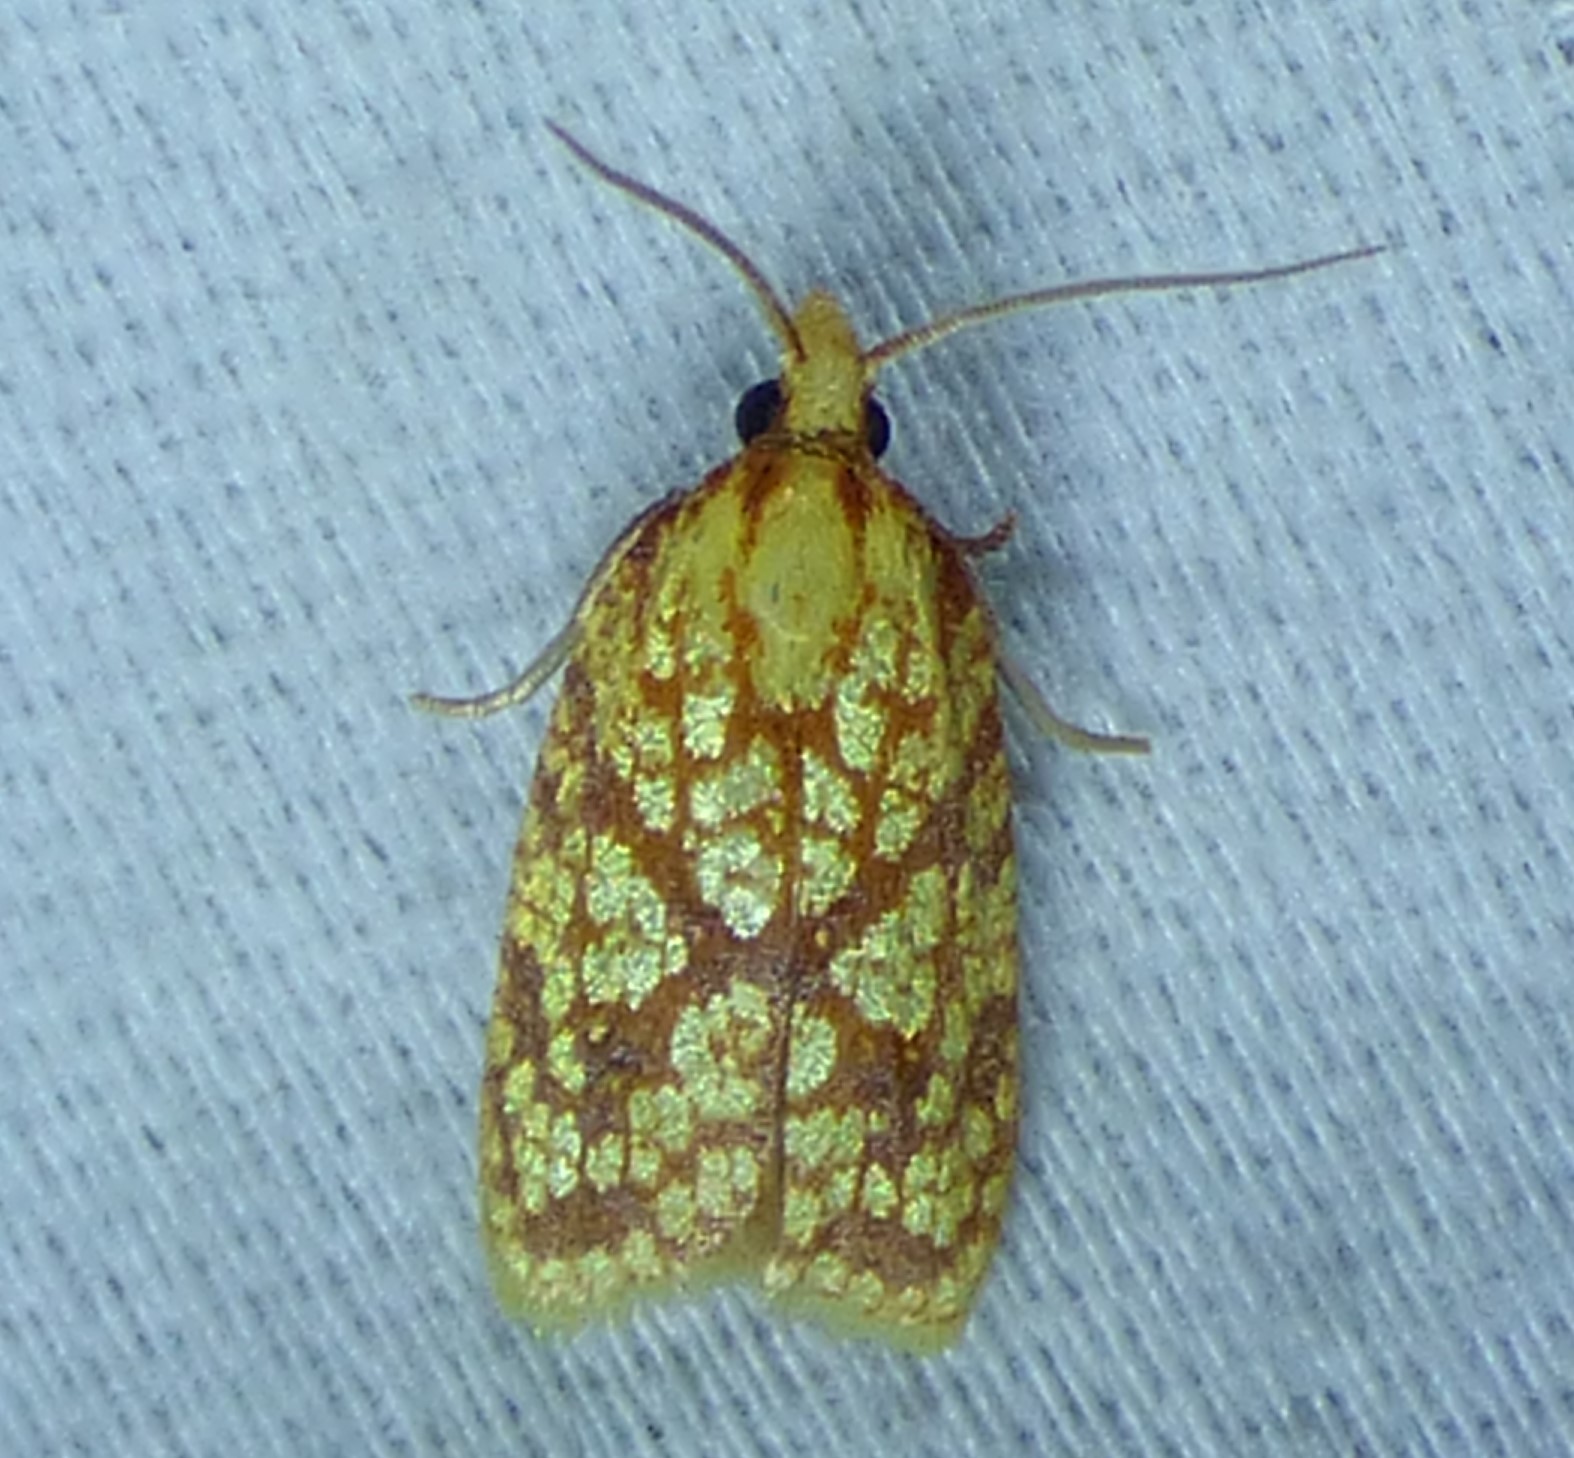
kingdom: Animalia
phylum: Arthropoda
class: Insecta
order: Lepidoptera
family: Tortricidae
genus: Sparganothis
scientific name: Sparganothis sulfureana
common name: Sparganothis fruitworm moth
